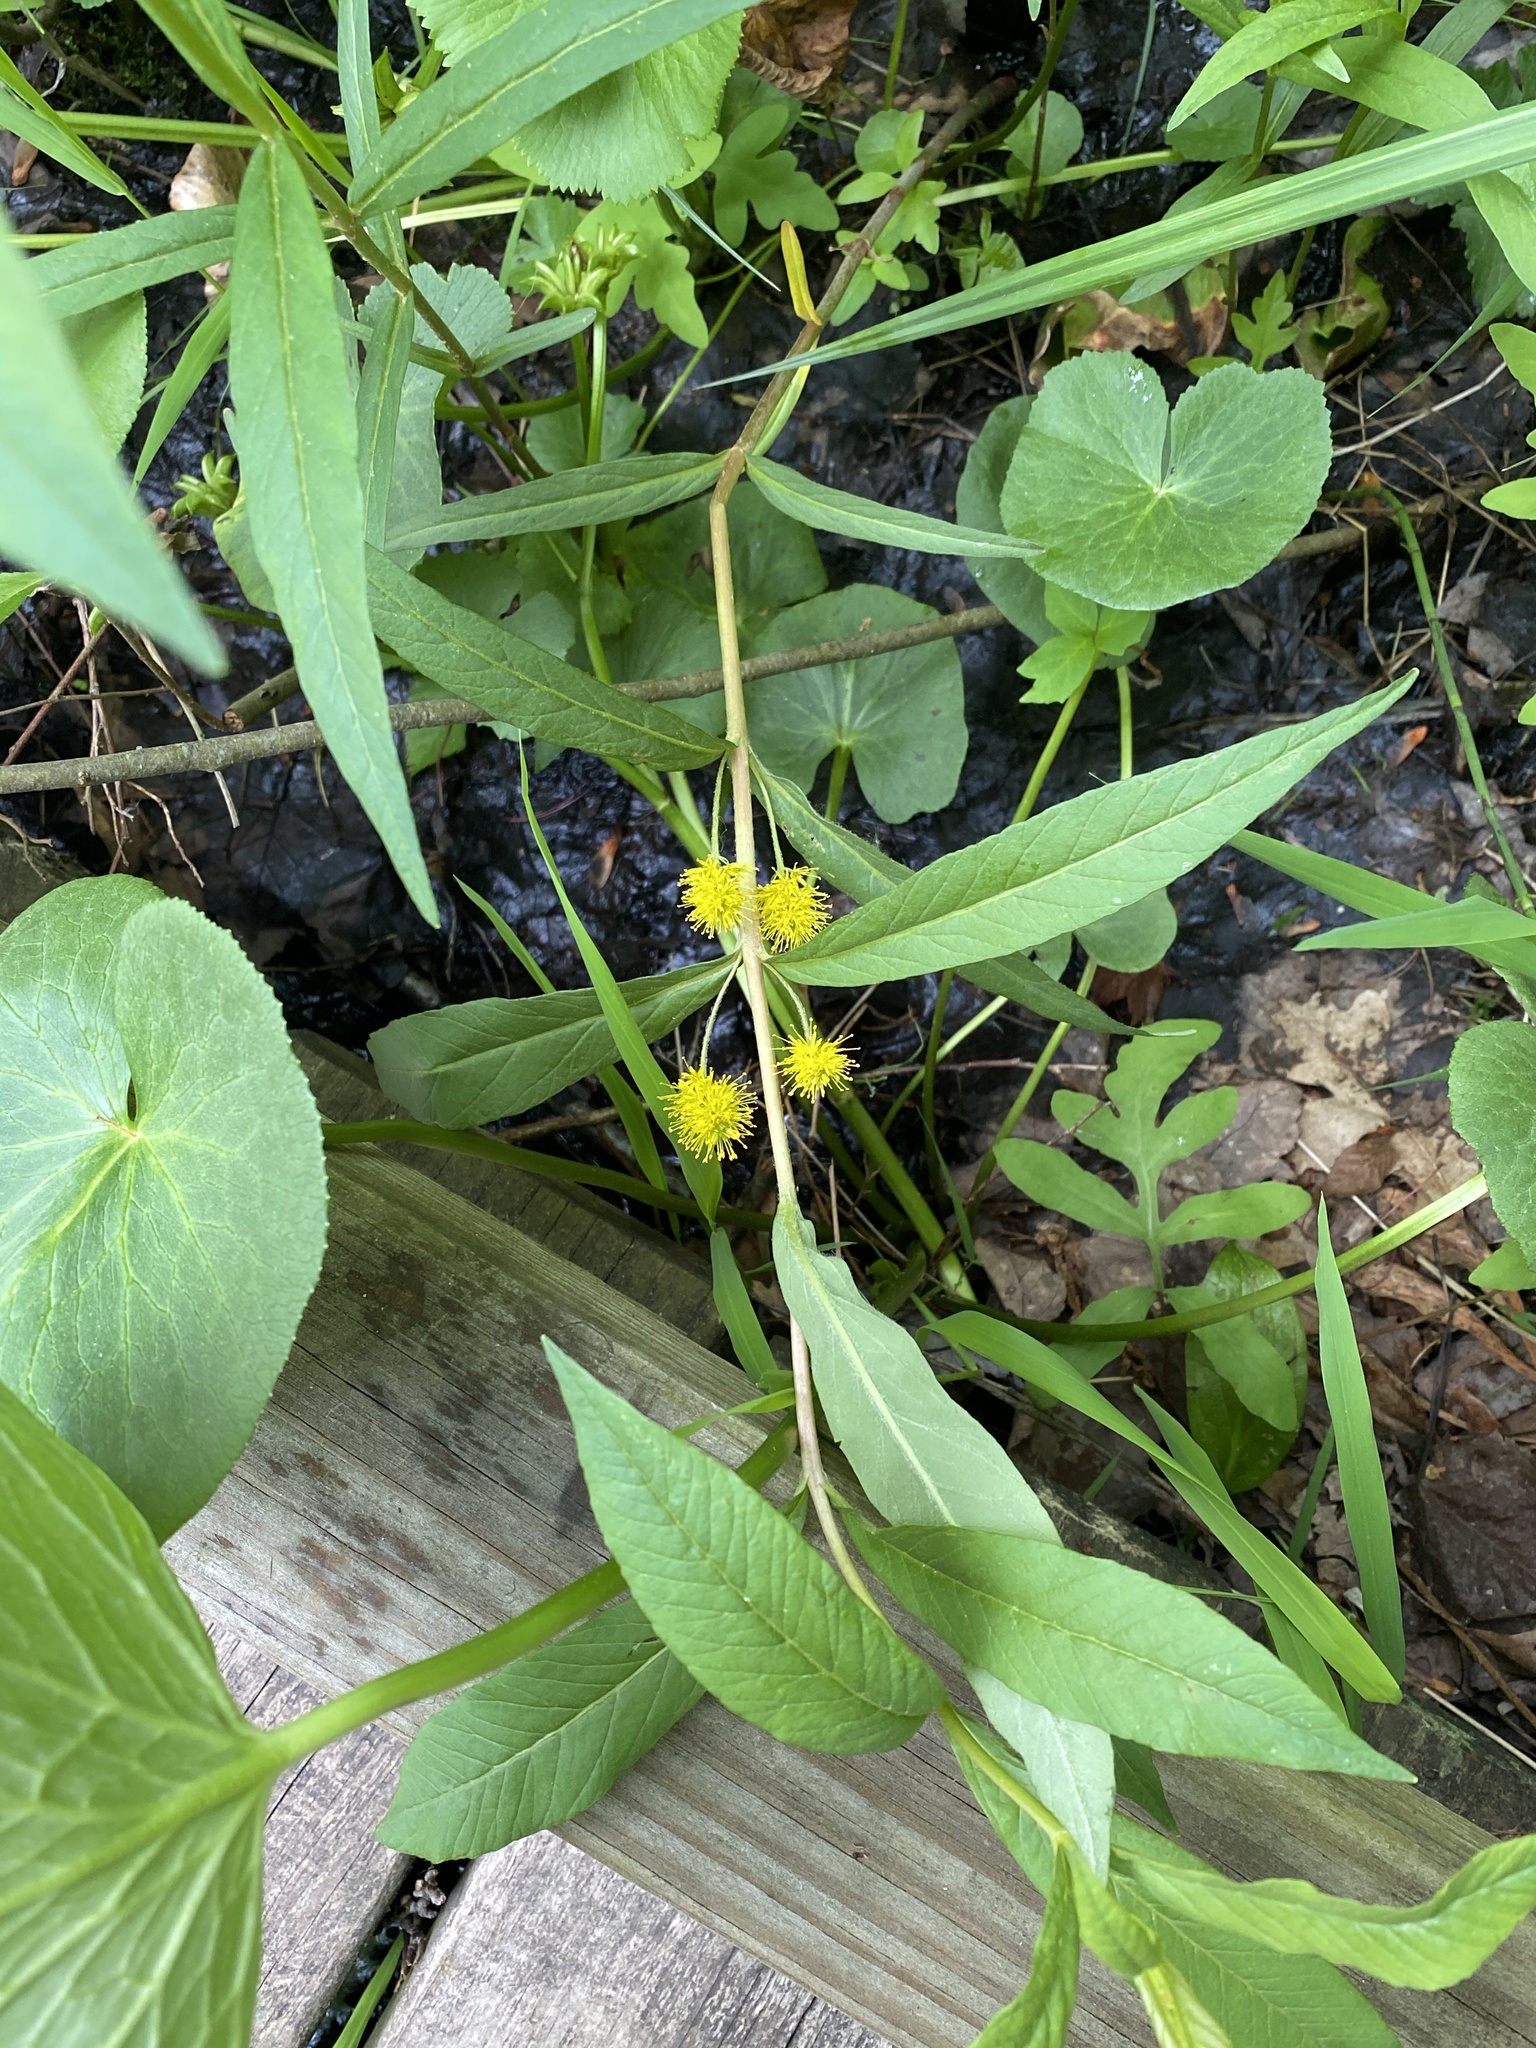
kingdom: Plantae
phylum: Tracheophyta
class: Magnoliopsida
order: Ericales
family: Primulaceae
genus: Lysimachia
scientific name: Lysimachia thyrsiflora
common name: Tufted loosestrife
